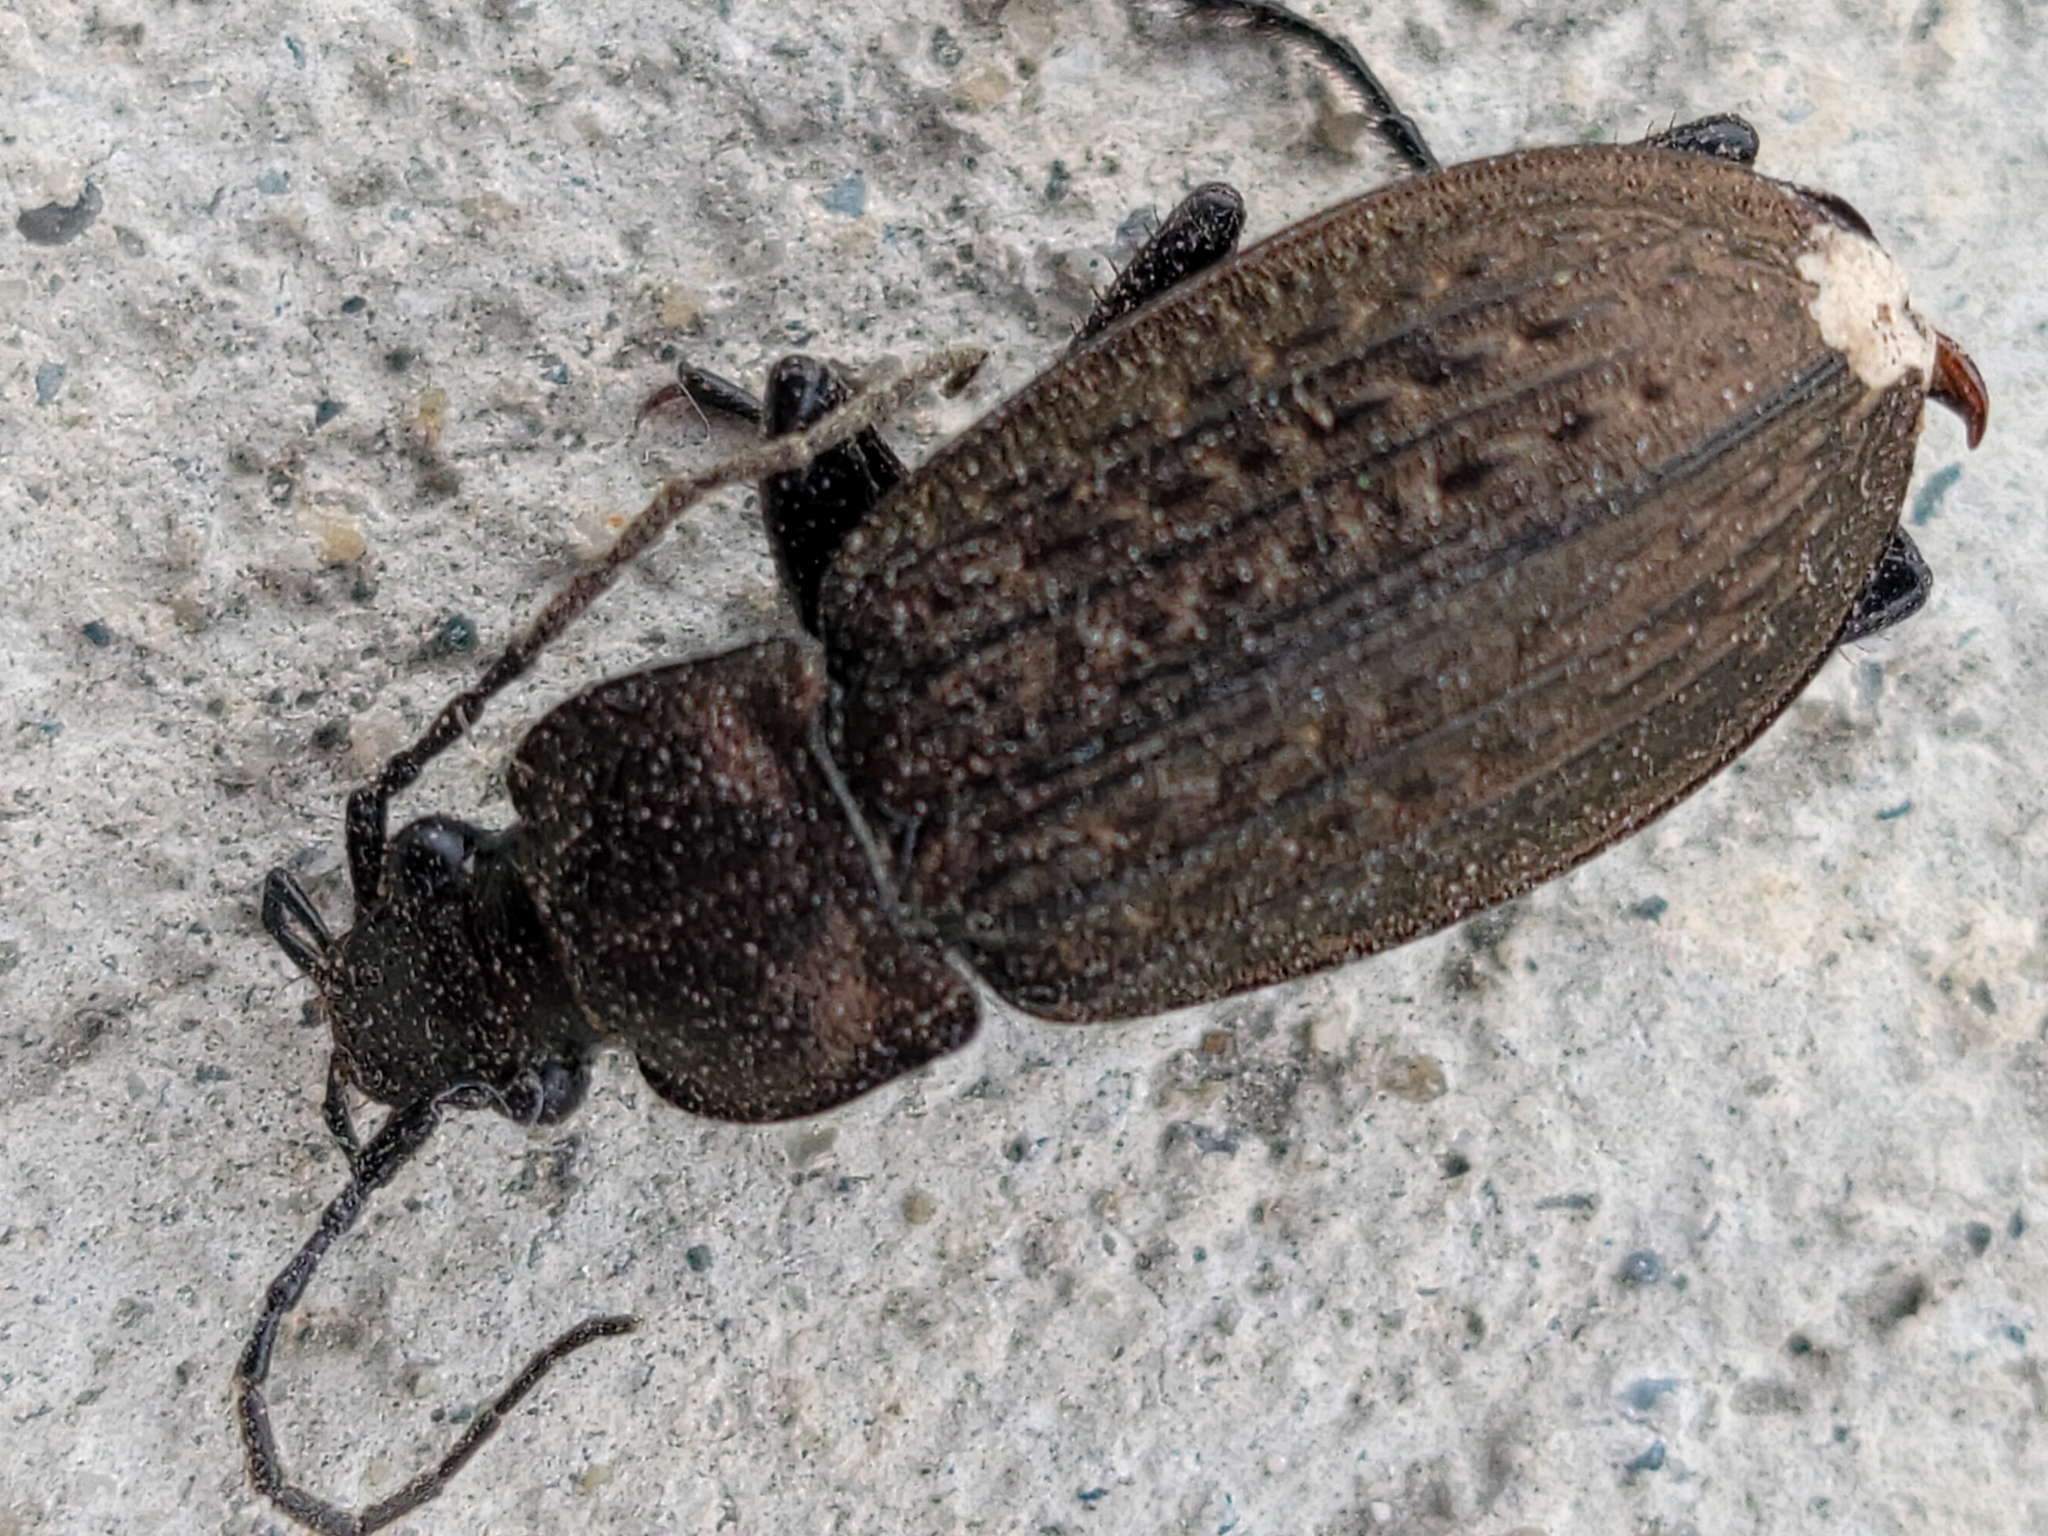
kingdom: Animalia
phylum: Arthropoda
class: Insecta
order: Coleoptera
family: Carabidae
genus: Carabus
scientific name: Carabus granulatus
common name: Granulate ground beetle
